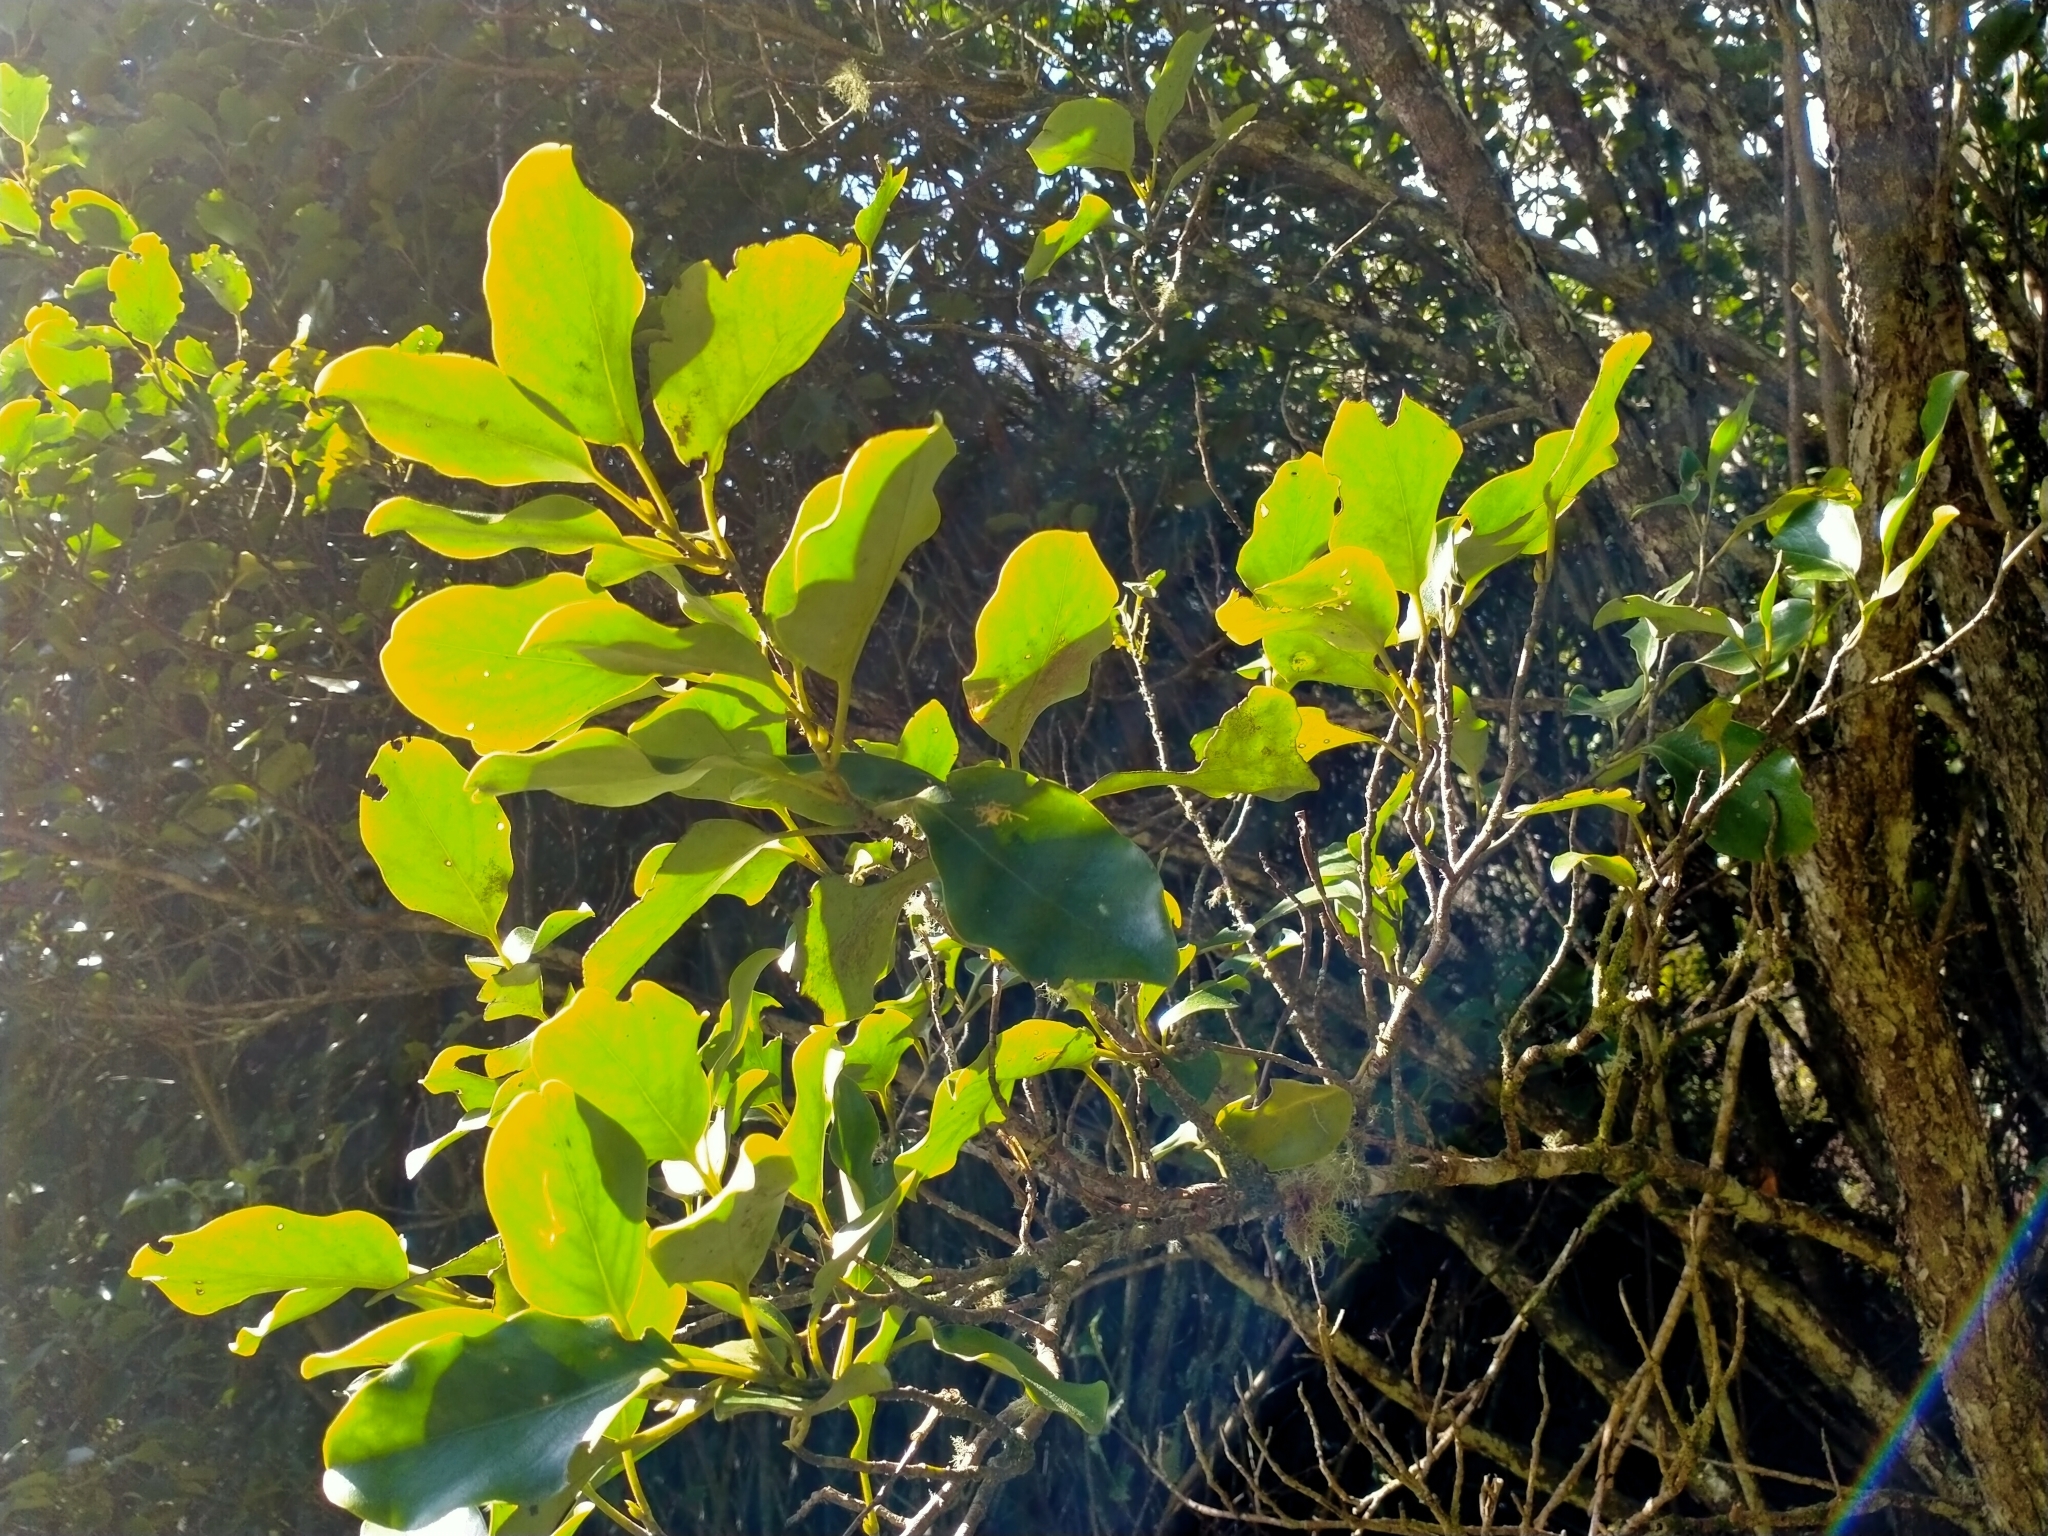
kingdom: Plantae
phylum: Tracheophyta
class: Magnoliopsida
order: Apiales
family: Griseliniaceae
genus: Griselinia
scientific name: Griselinia littoralis
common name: New zealand broadleaf
